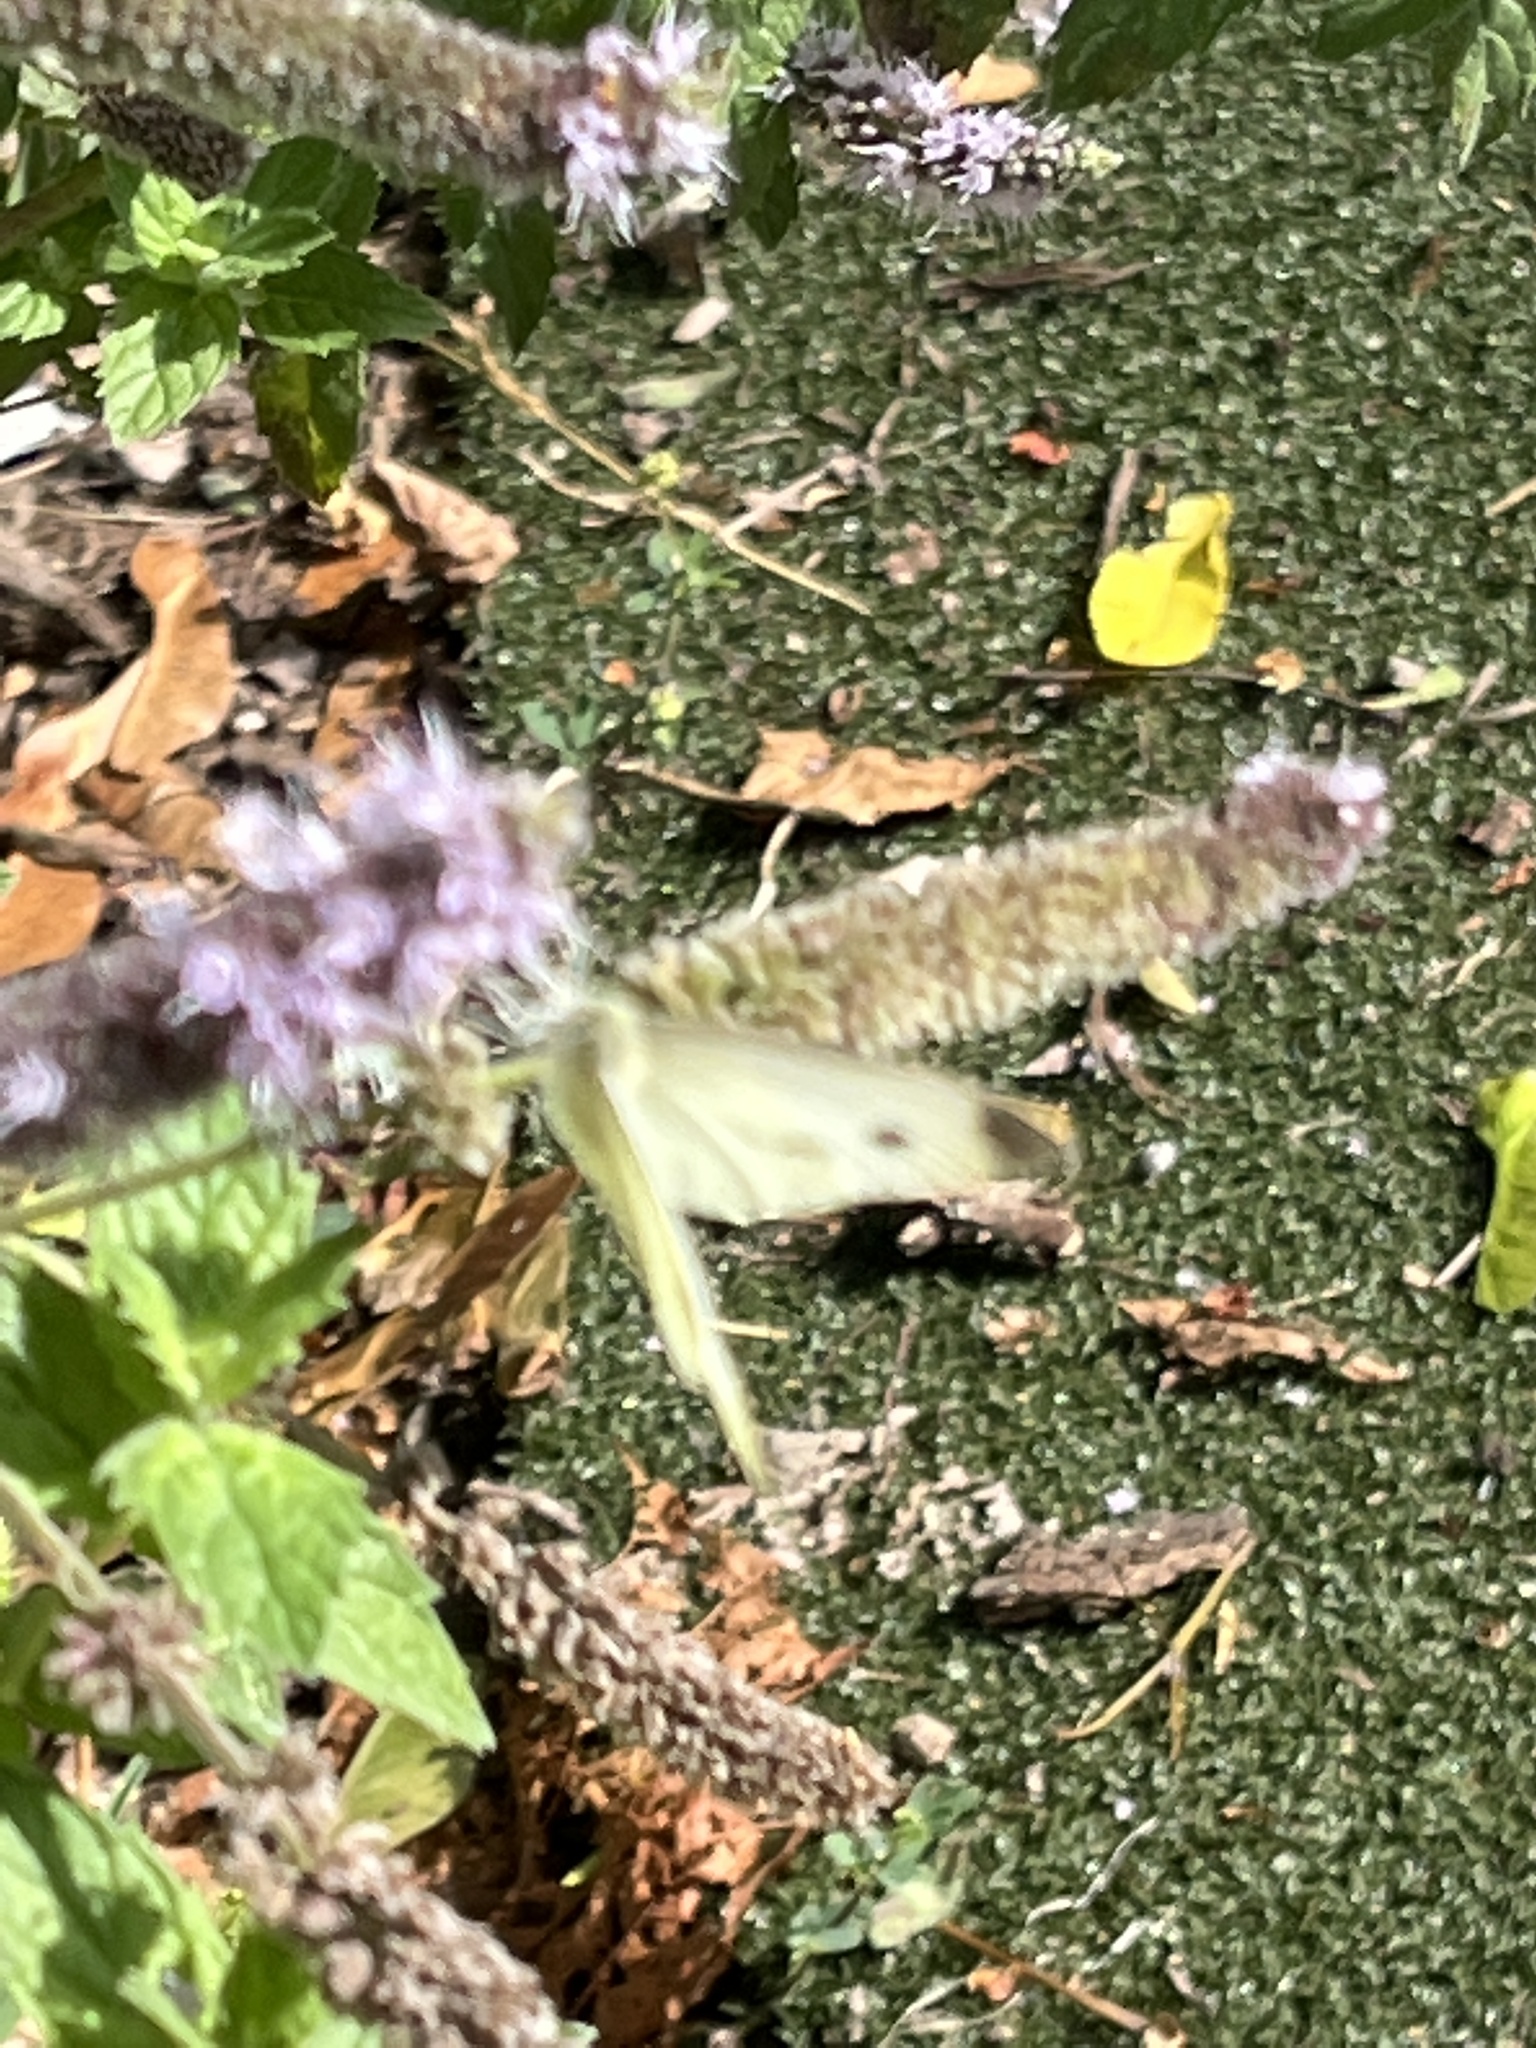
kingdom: Animalia
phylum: Arthropoda
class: Insecta
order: Lepidoptera
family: Pieridae
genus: Pieris
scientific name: Pieris rapae
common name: Small white
